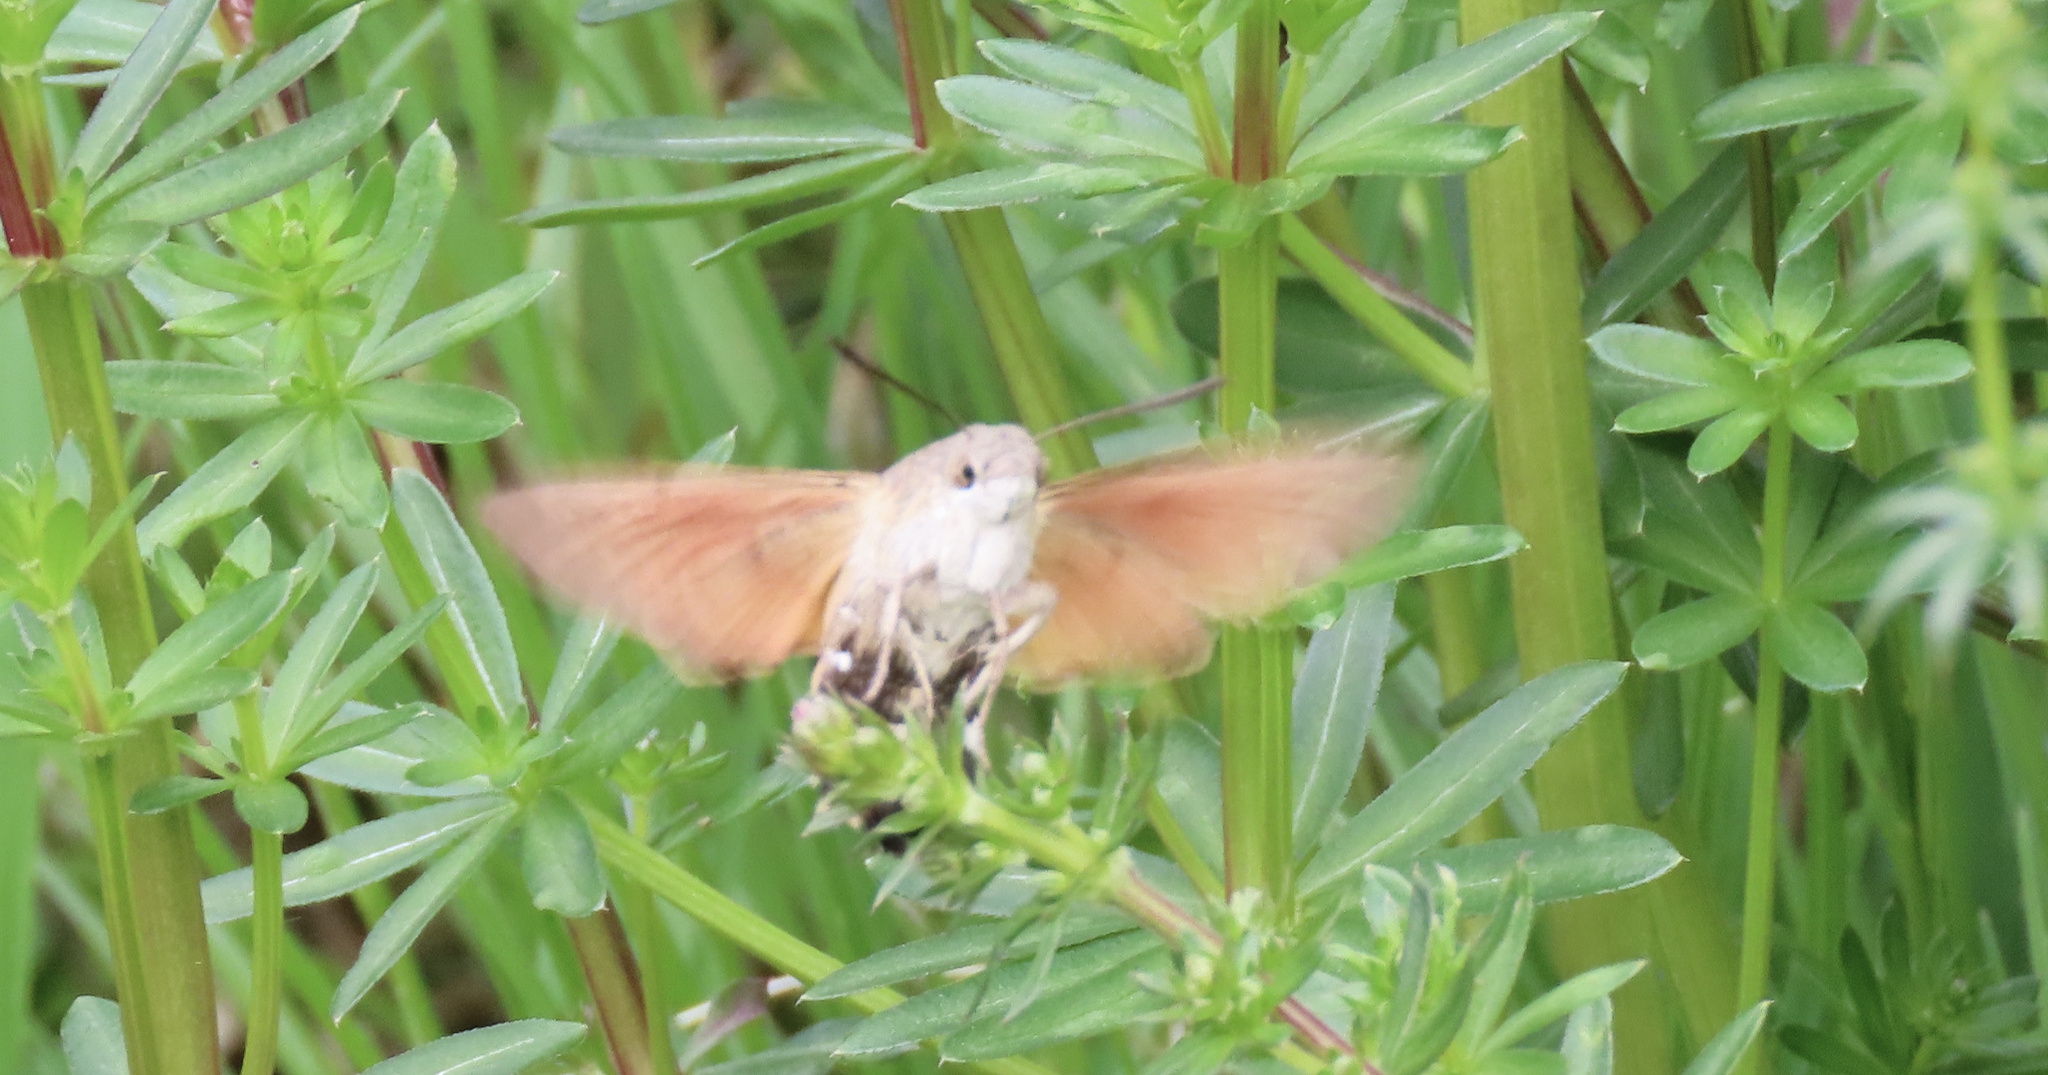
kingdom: Animalia
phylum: Arthropoda
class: Insecta
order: Lepidoptera
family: Sphingidae
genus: Macroglossum
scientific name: Macroglossum stellatarum
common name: Humming-bird hawk-moth
